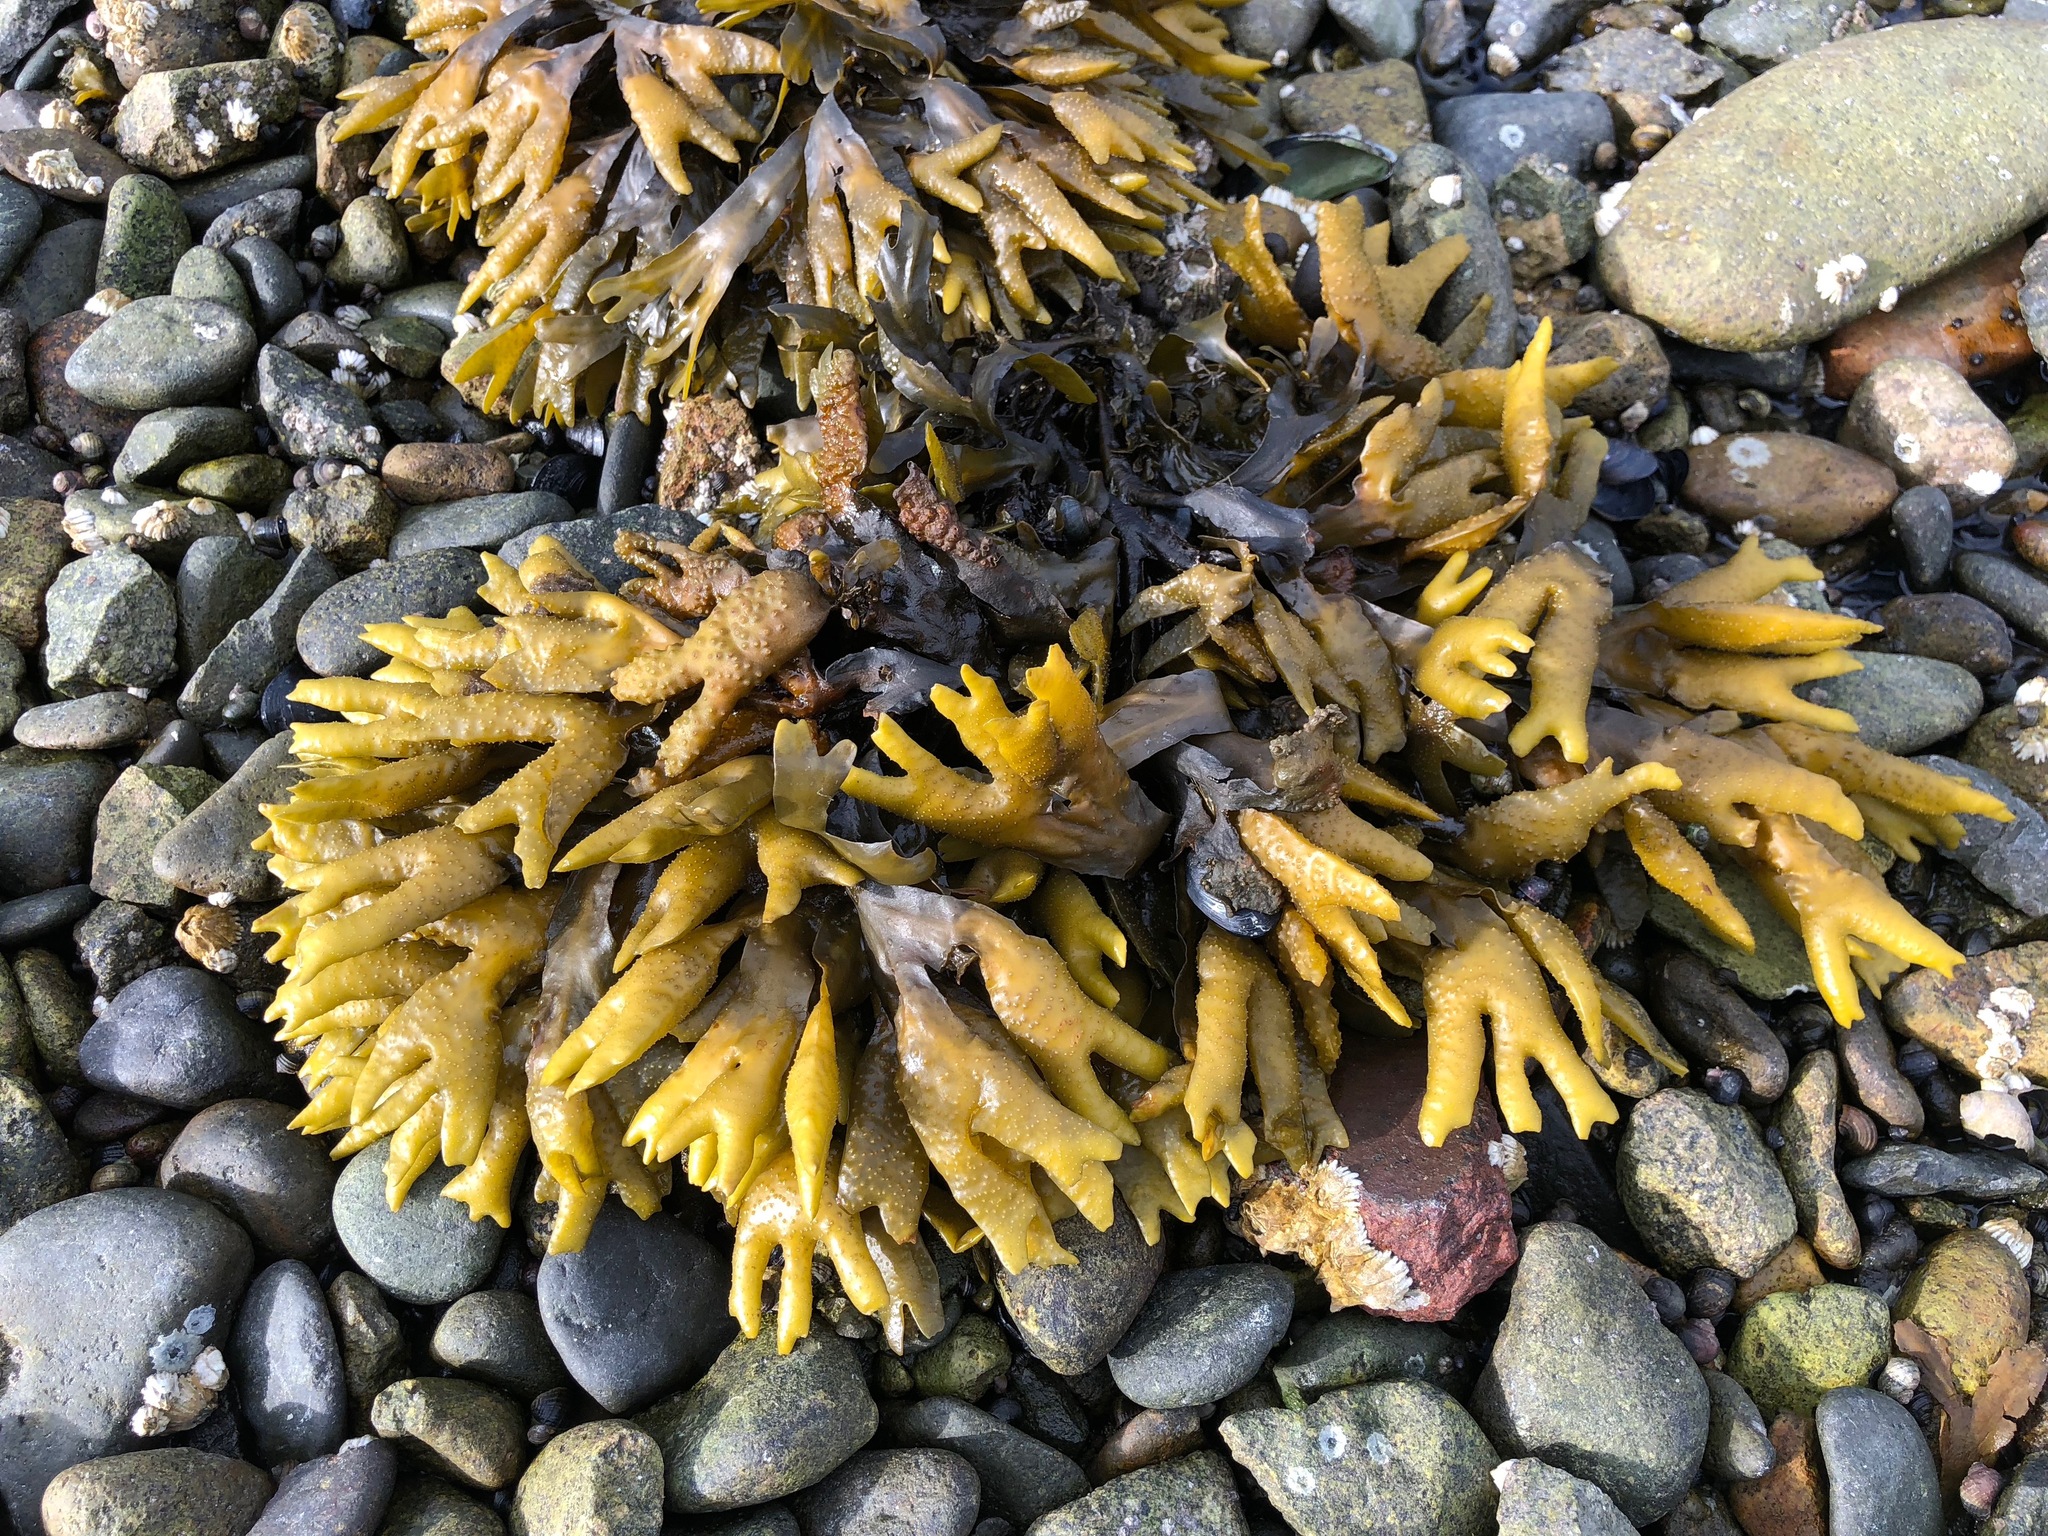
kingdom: Chromista
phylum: Ochrophyta
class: Phaeophyceae
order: Fucales
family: Fucaceae
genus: Fucus
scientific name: Fucus distichus
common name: Rockweed
